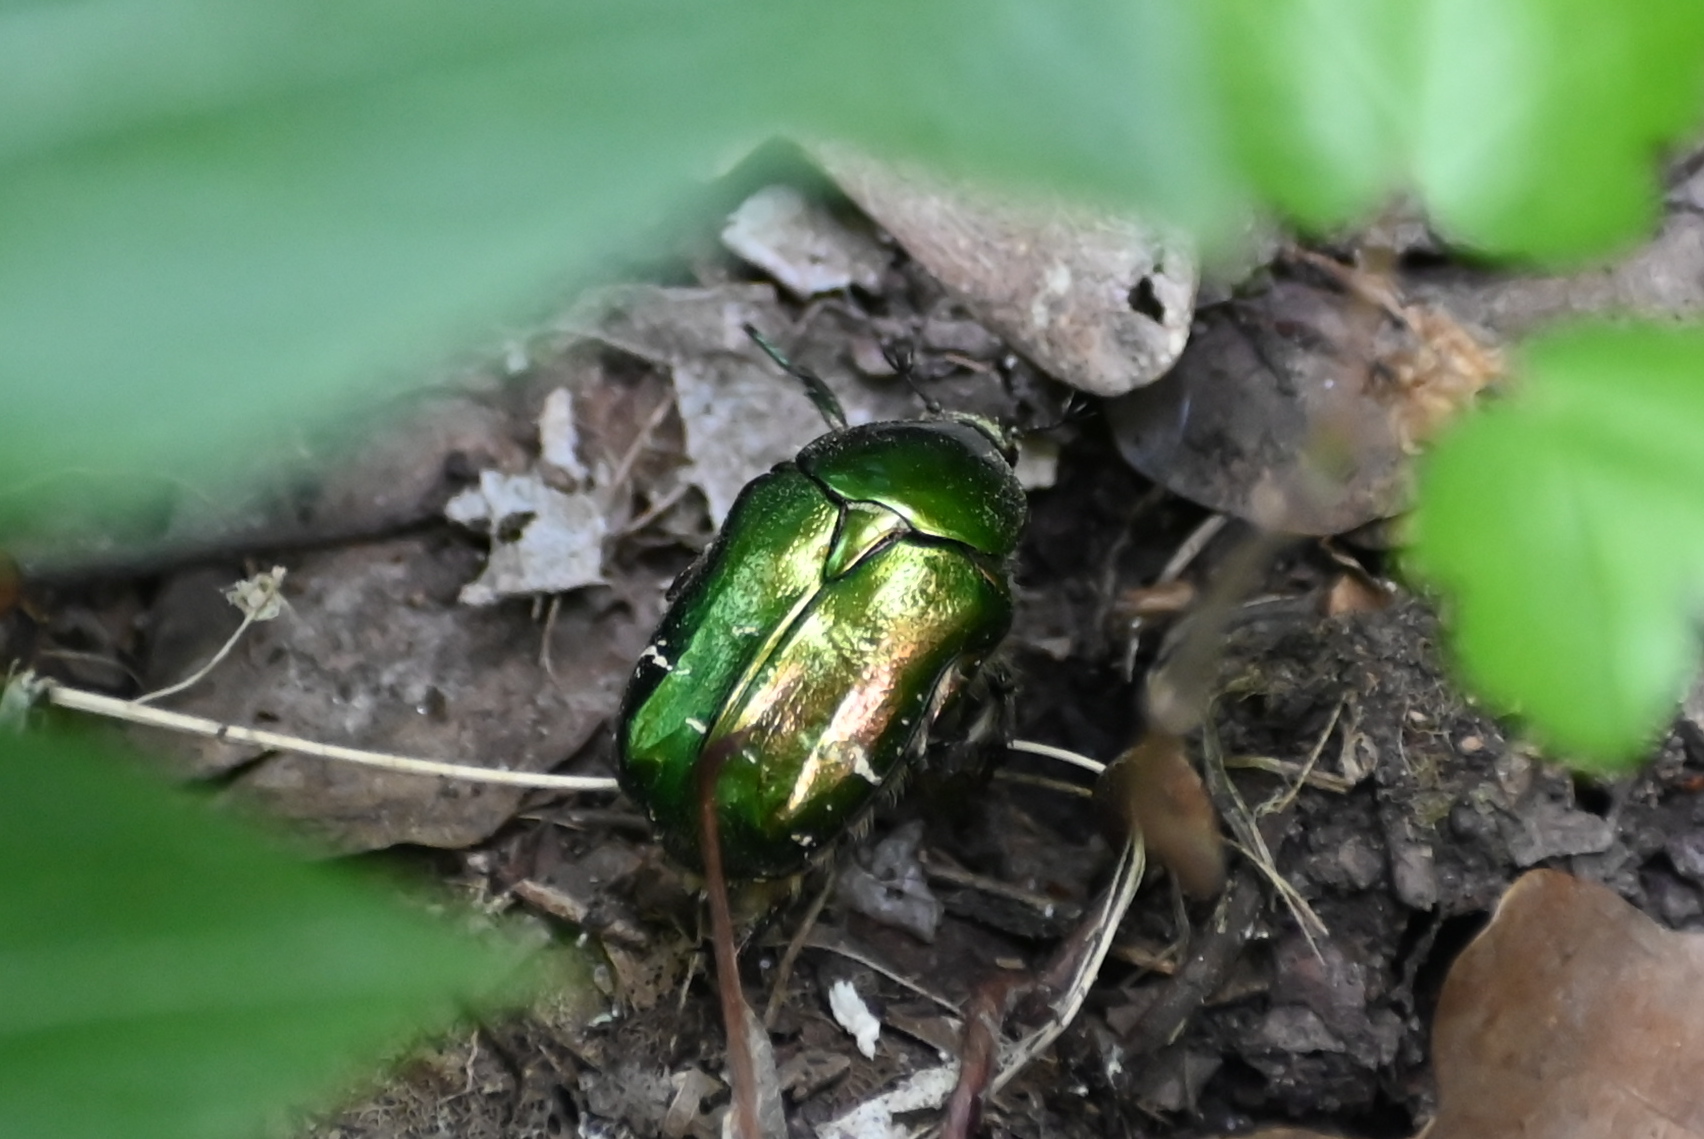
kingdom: Animalia
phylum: Arthropoda
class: Insecta
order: Coleoptera
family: Scarabaeidae
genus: Cetonia
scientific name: Cetonia aurata
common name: Rose chafer
